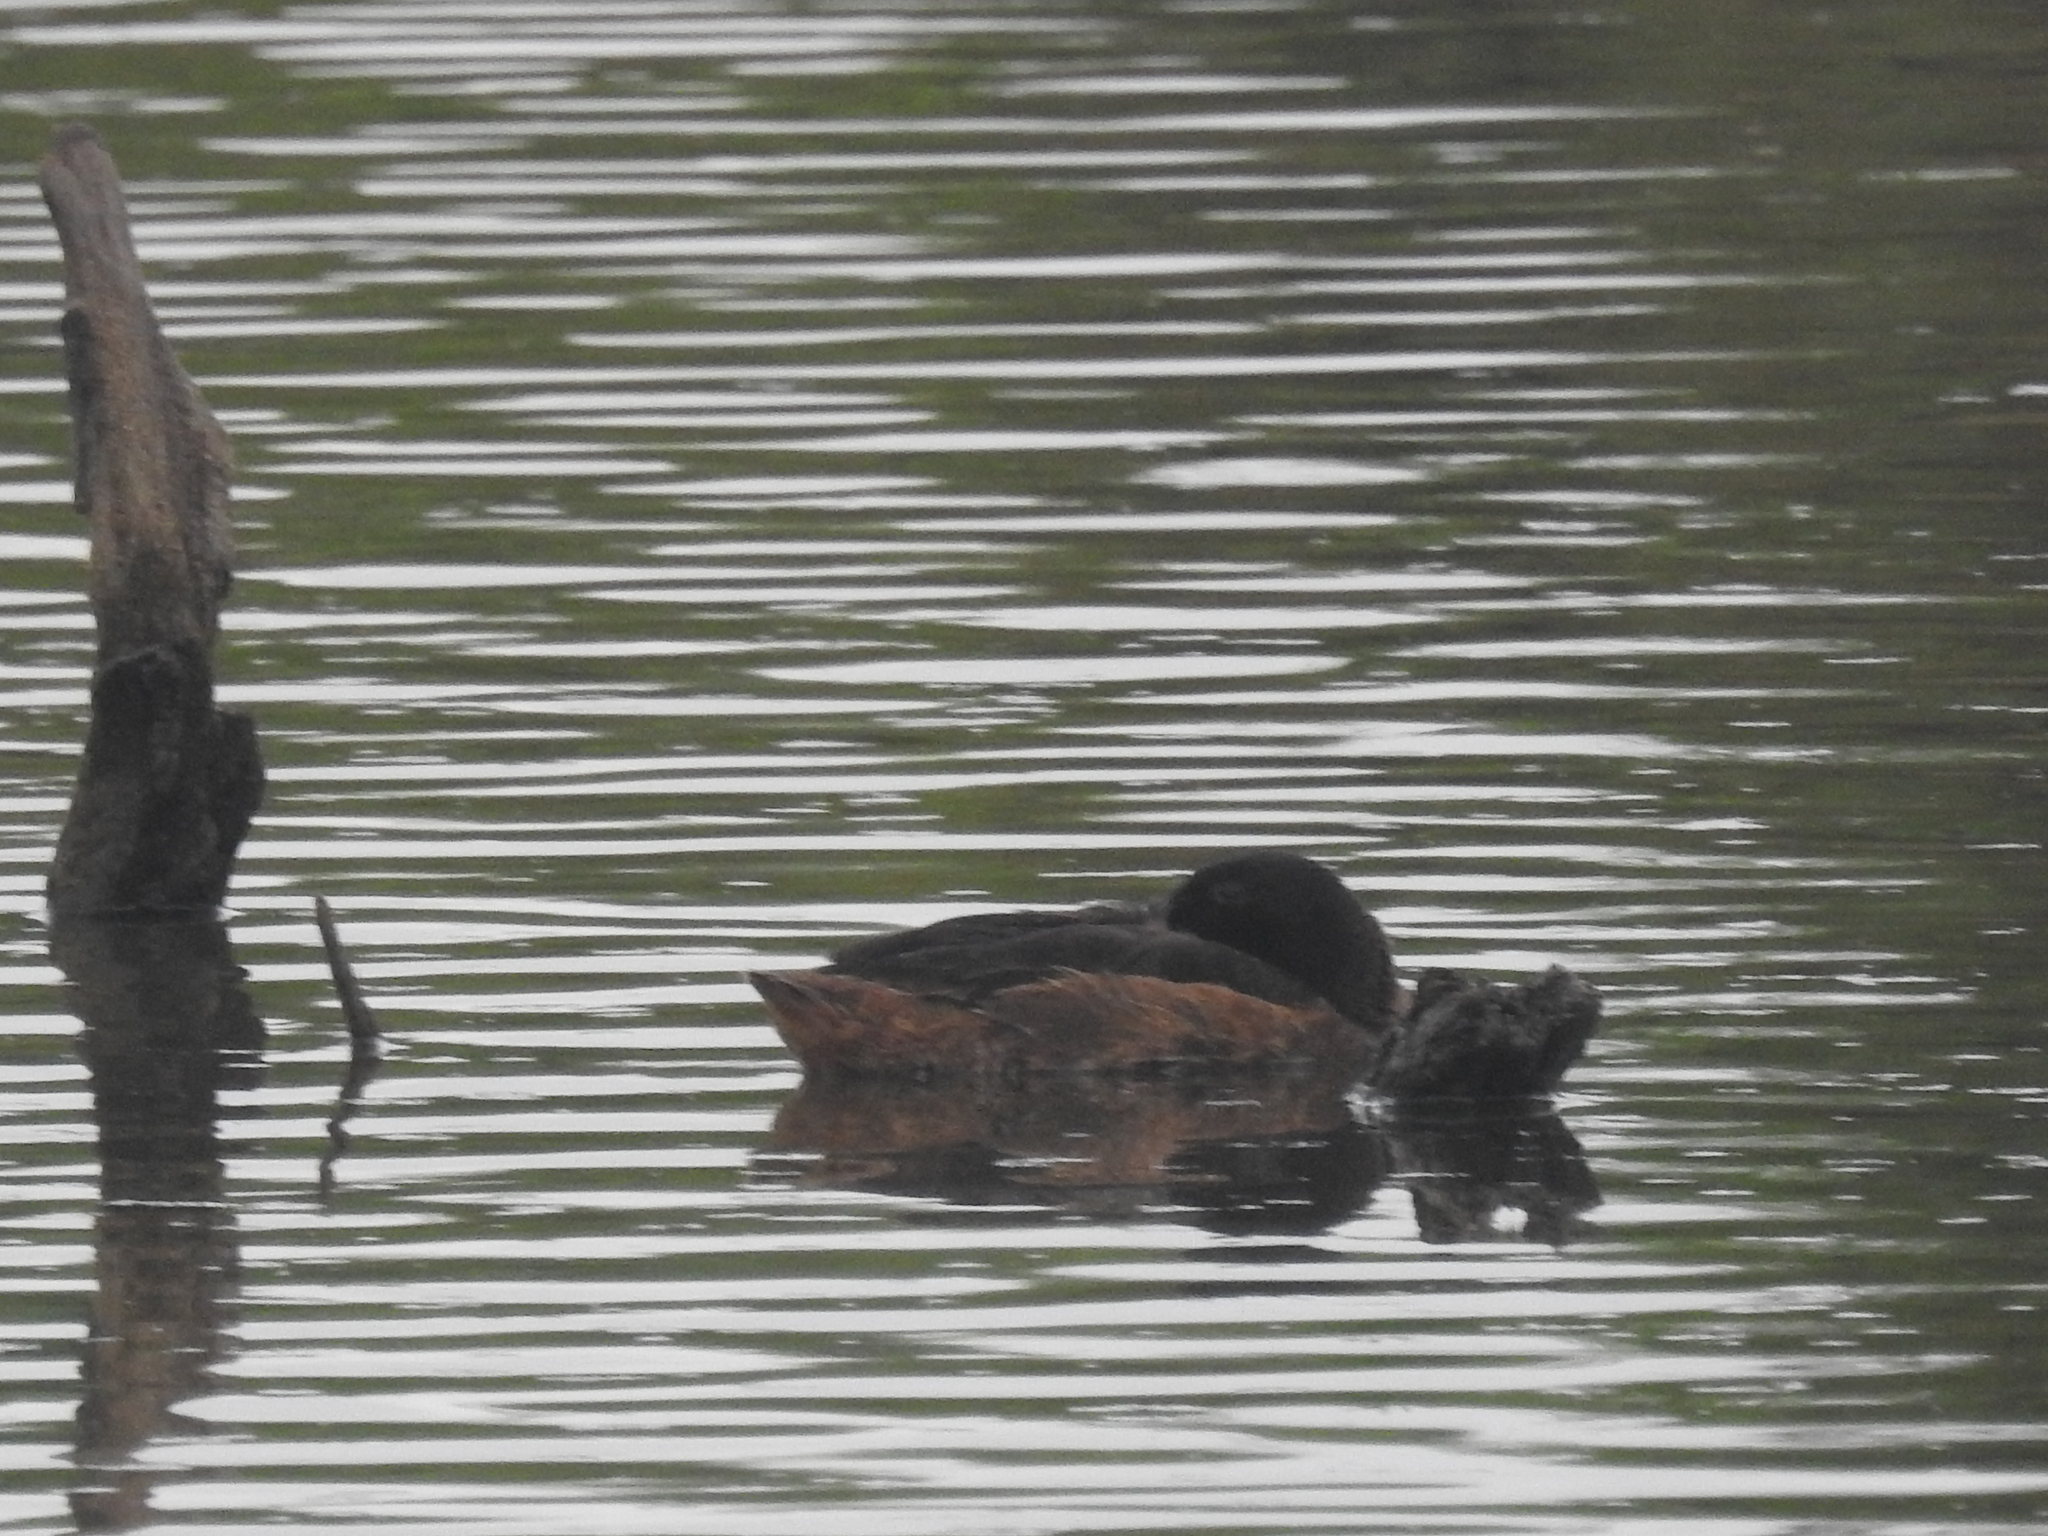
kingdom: Animalia
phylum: Chordata
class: Aves
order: Anseriformes
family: Anatidae
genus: Heteronetta
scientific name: Heteronetta atricapilla
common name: Black-headed duck
